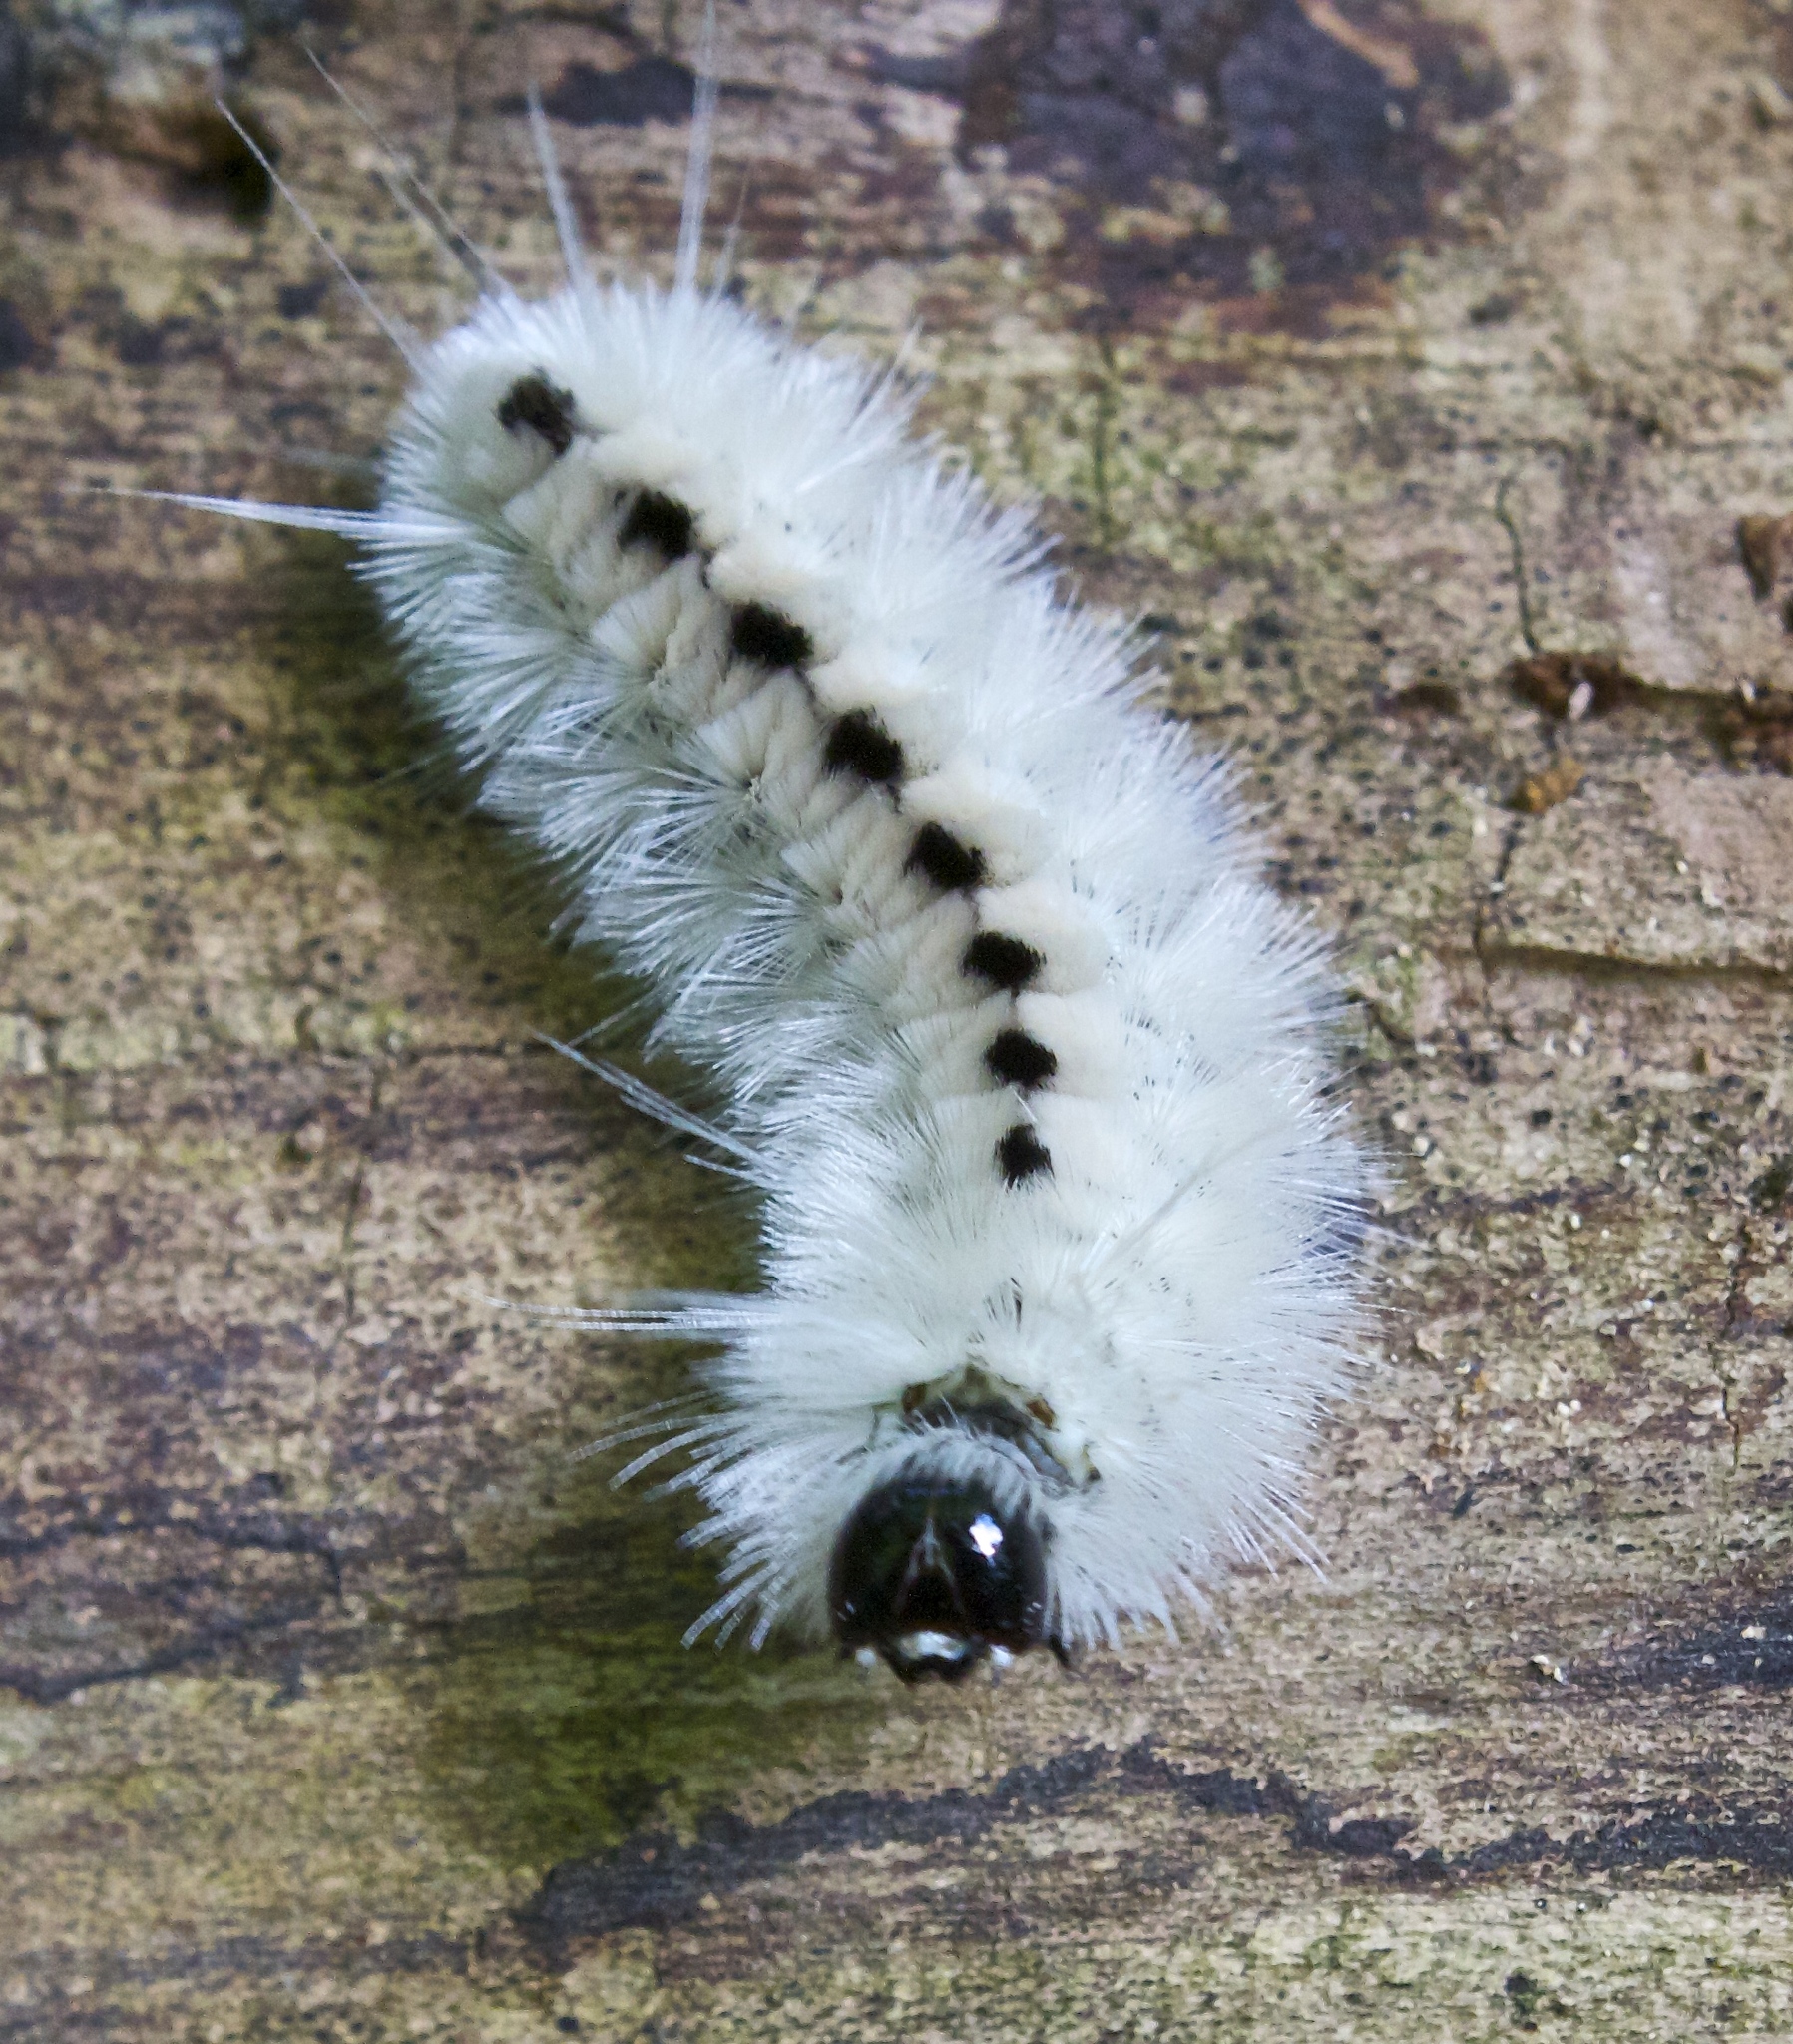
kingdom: Animalia
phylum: Arthropoda
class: Insecta
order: Lepidoptera
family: Erebidae
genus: Lophocampa
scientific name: Lophocampa caryae
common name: Hickory tussock moth
